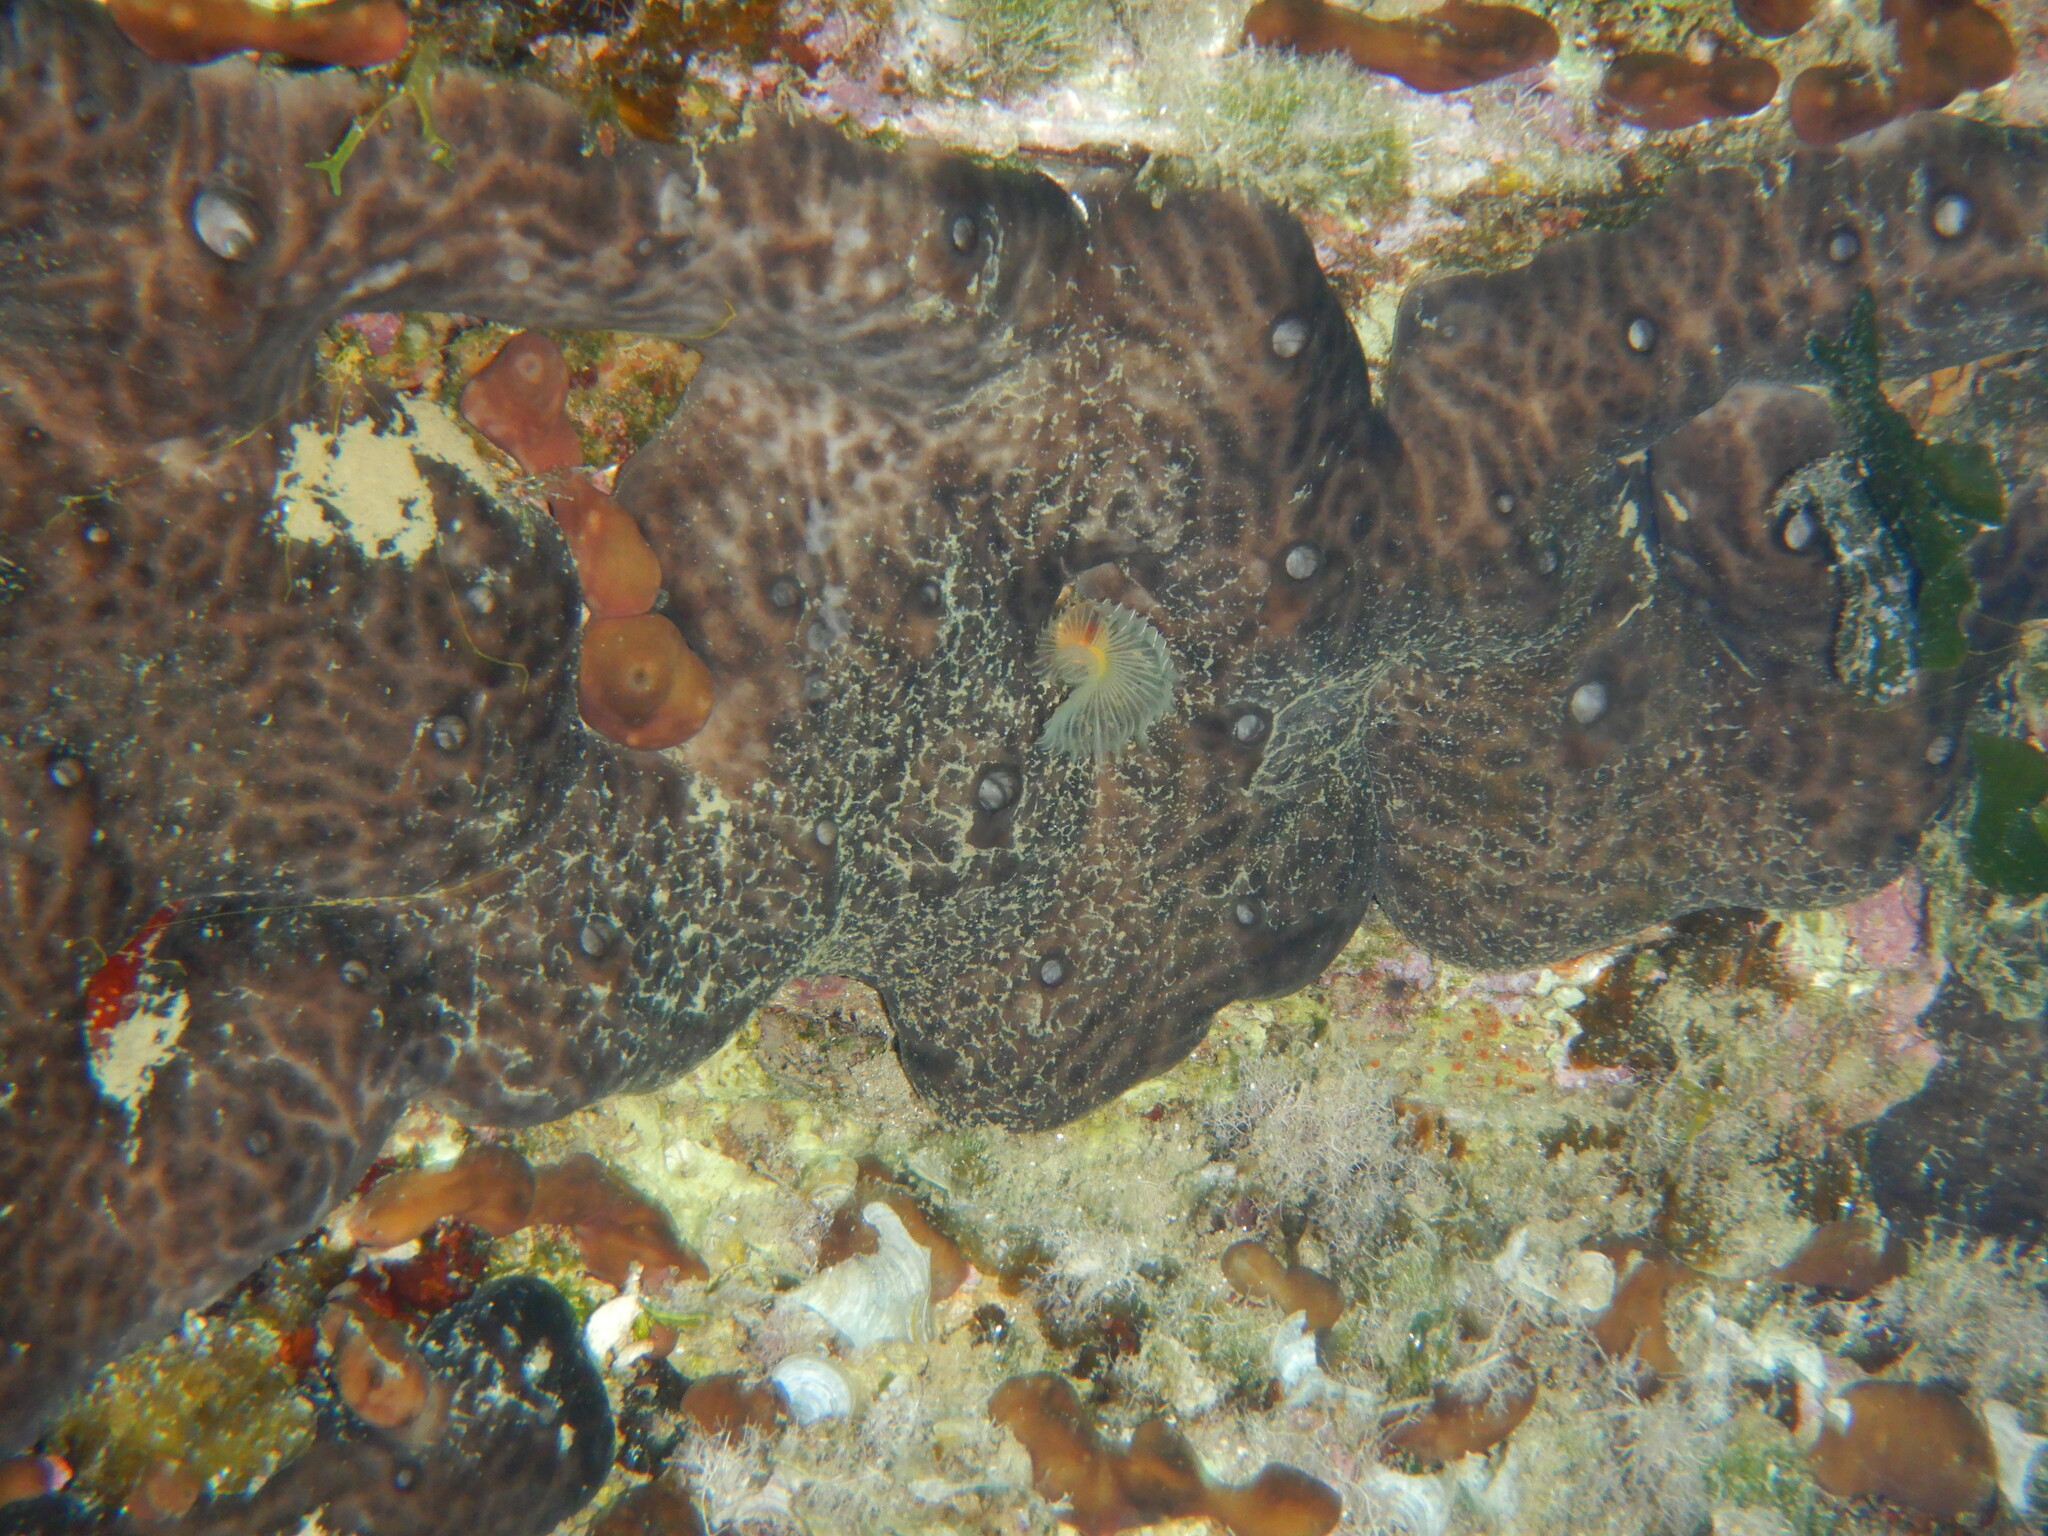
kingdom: Animalia
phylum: Porifera
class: Demospongiae
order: Chondrosiida
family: Chondrosiidae
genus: Chondrosia
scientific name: Chondrosia reniformis
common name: Chicken liver sponge
